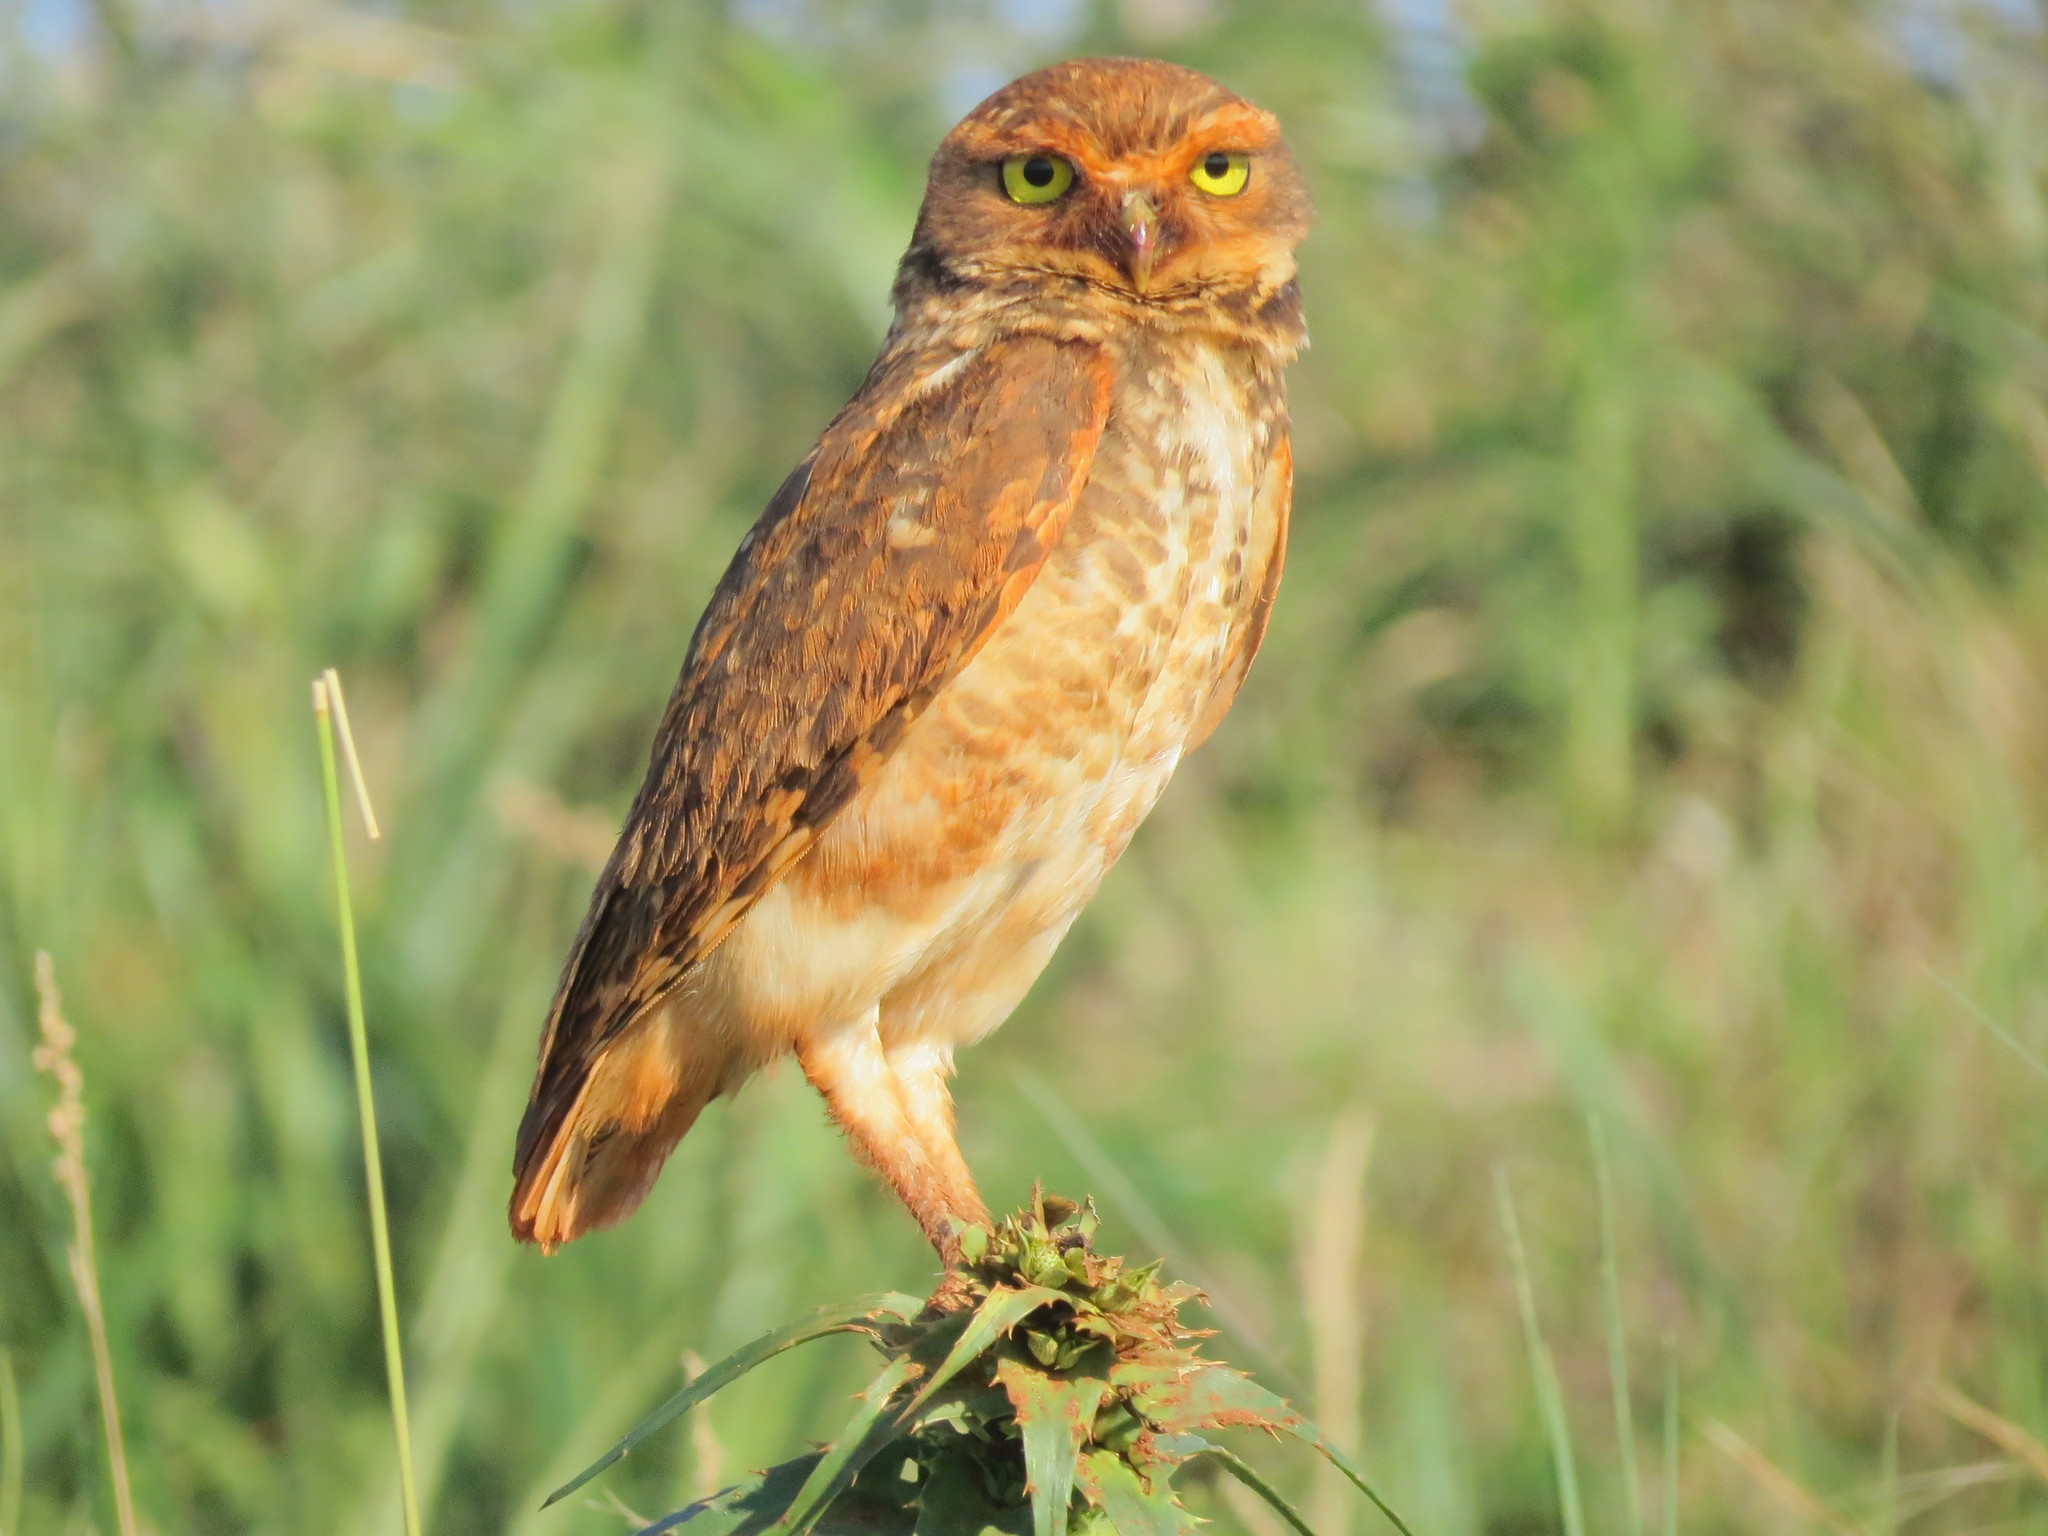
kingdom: Animalia
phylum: Chordata
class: Aves
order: Strigiformes
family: Strigidae
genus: Athene
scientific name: Athene cunicularia
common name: Burrowing owl
